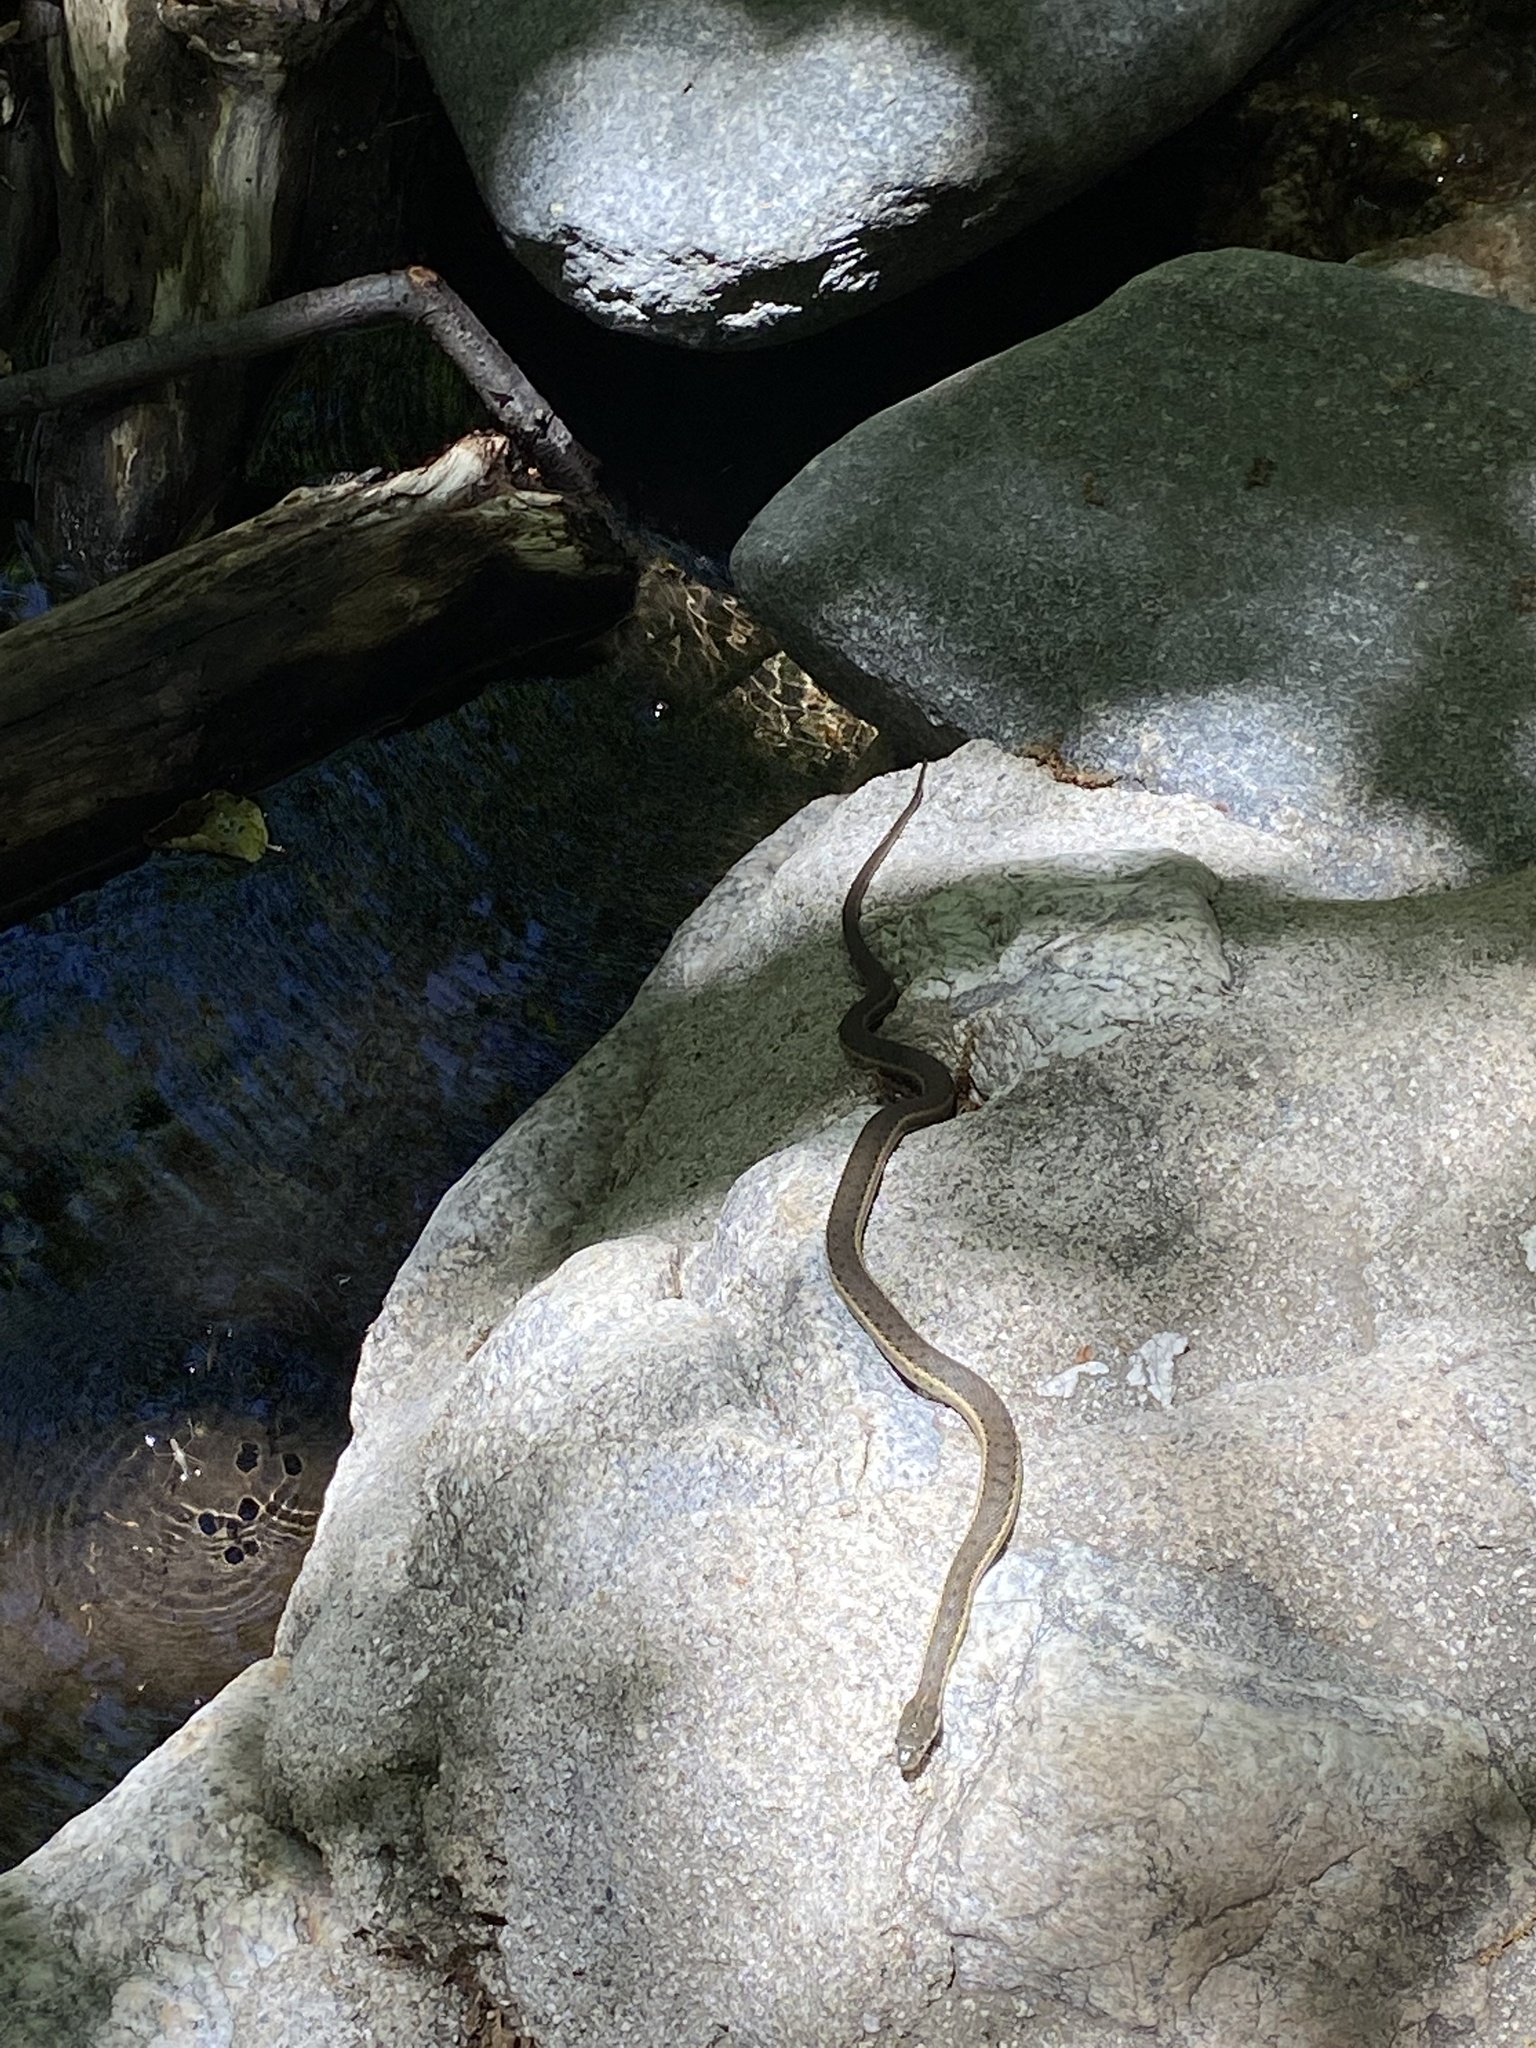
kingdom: Animalia
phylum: Chordata
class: Squamata
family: Colubridae
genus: Thamnophis
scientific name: Thamnophis hammondii
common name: Two-striped garter snake
